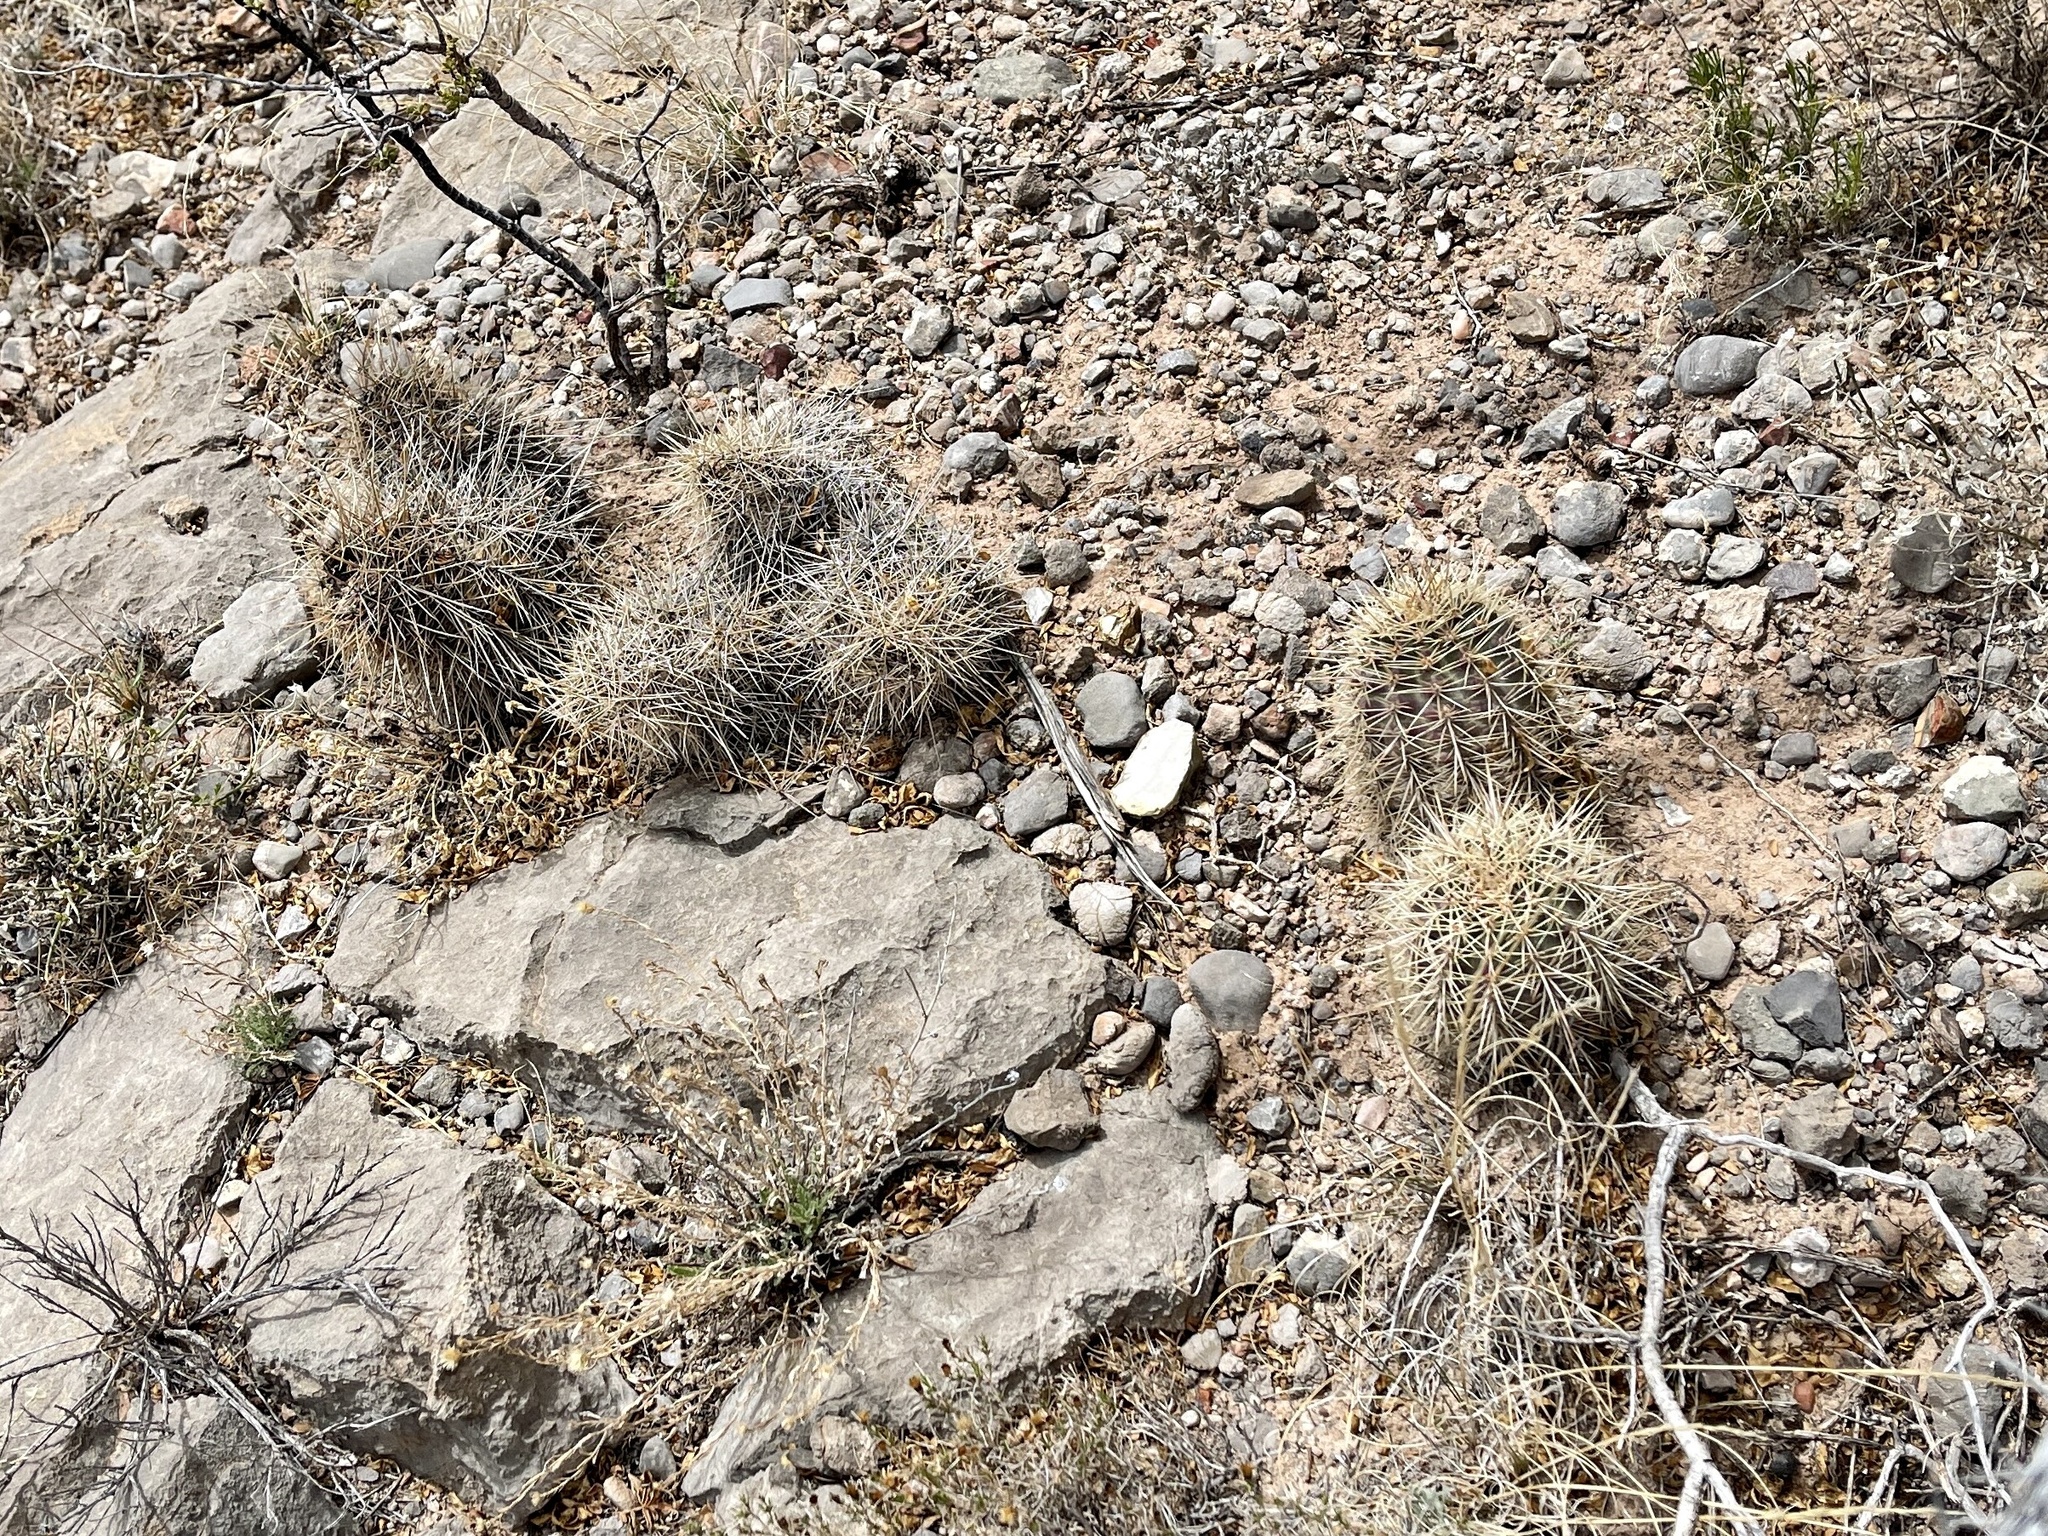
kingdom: Plantae
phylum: Tracheophyta
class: Magnoliopsida
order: Caryophyllales
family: Cactaceae
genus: Echinocereus
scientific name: Echinocereus coccineus
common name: Scarlet hedgehog cactus
